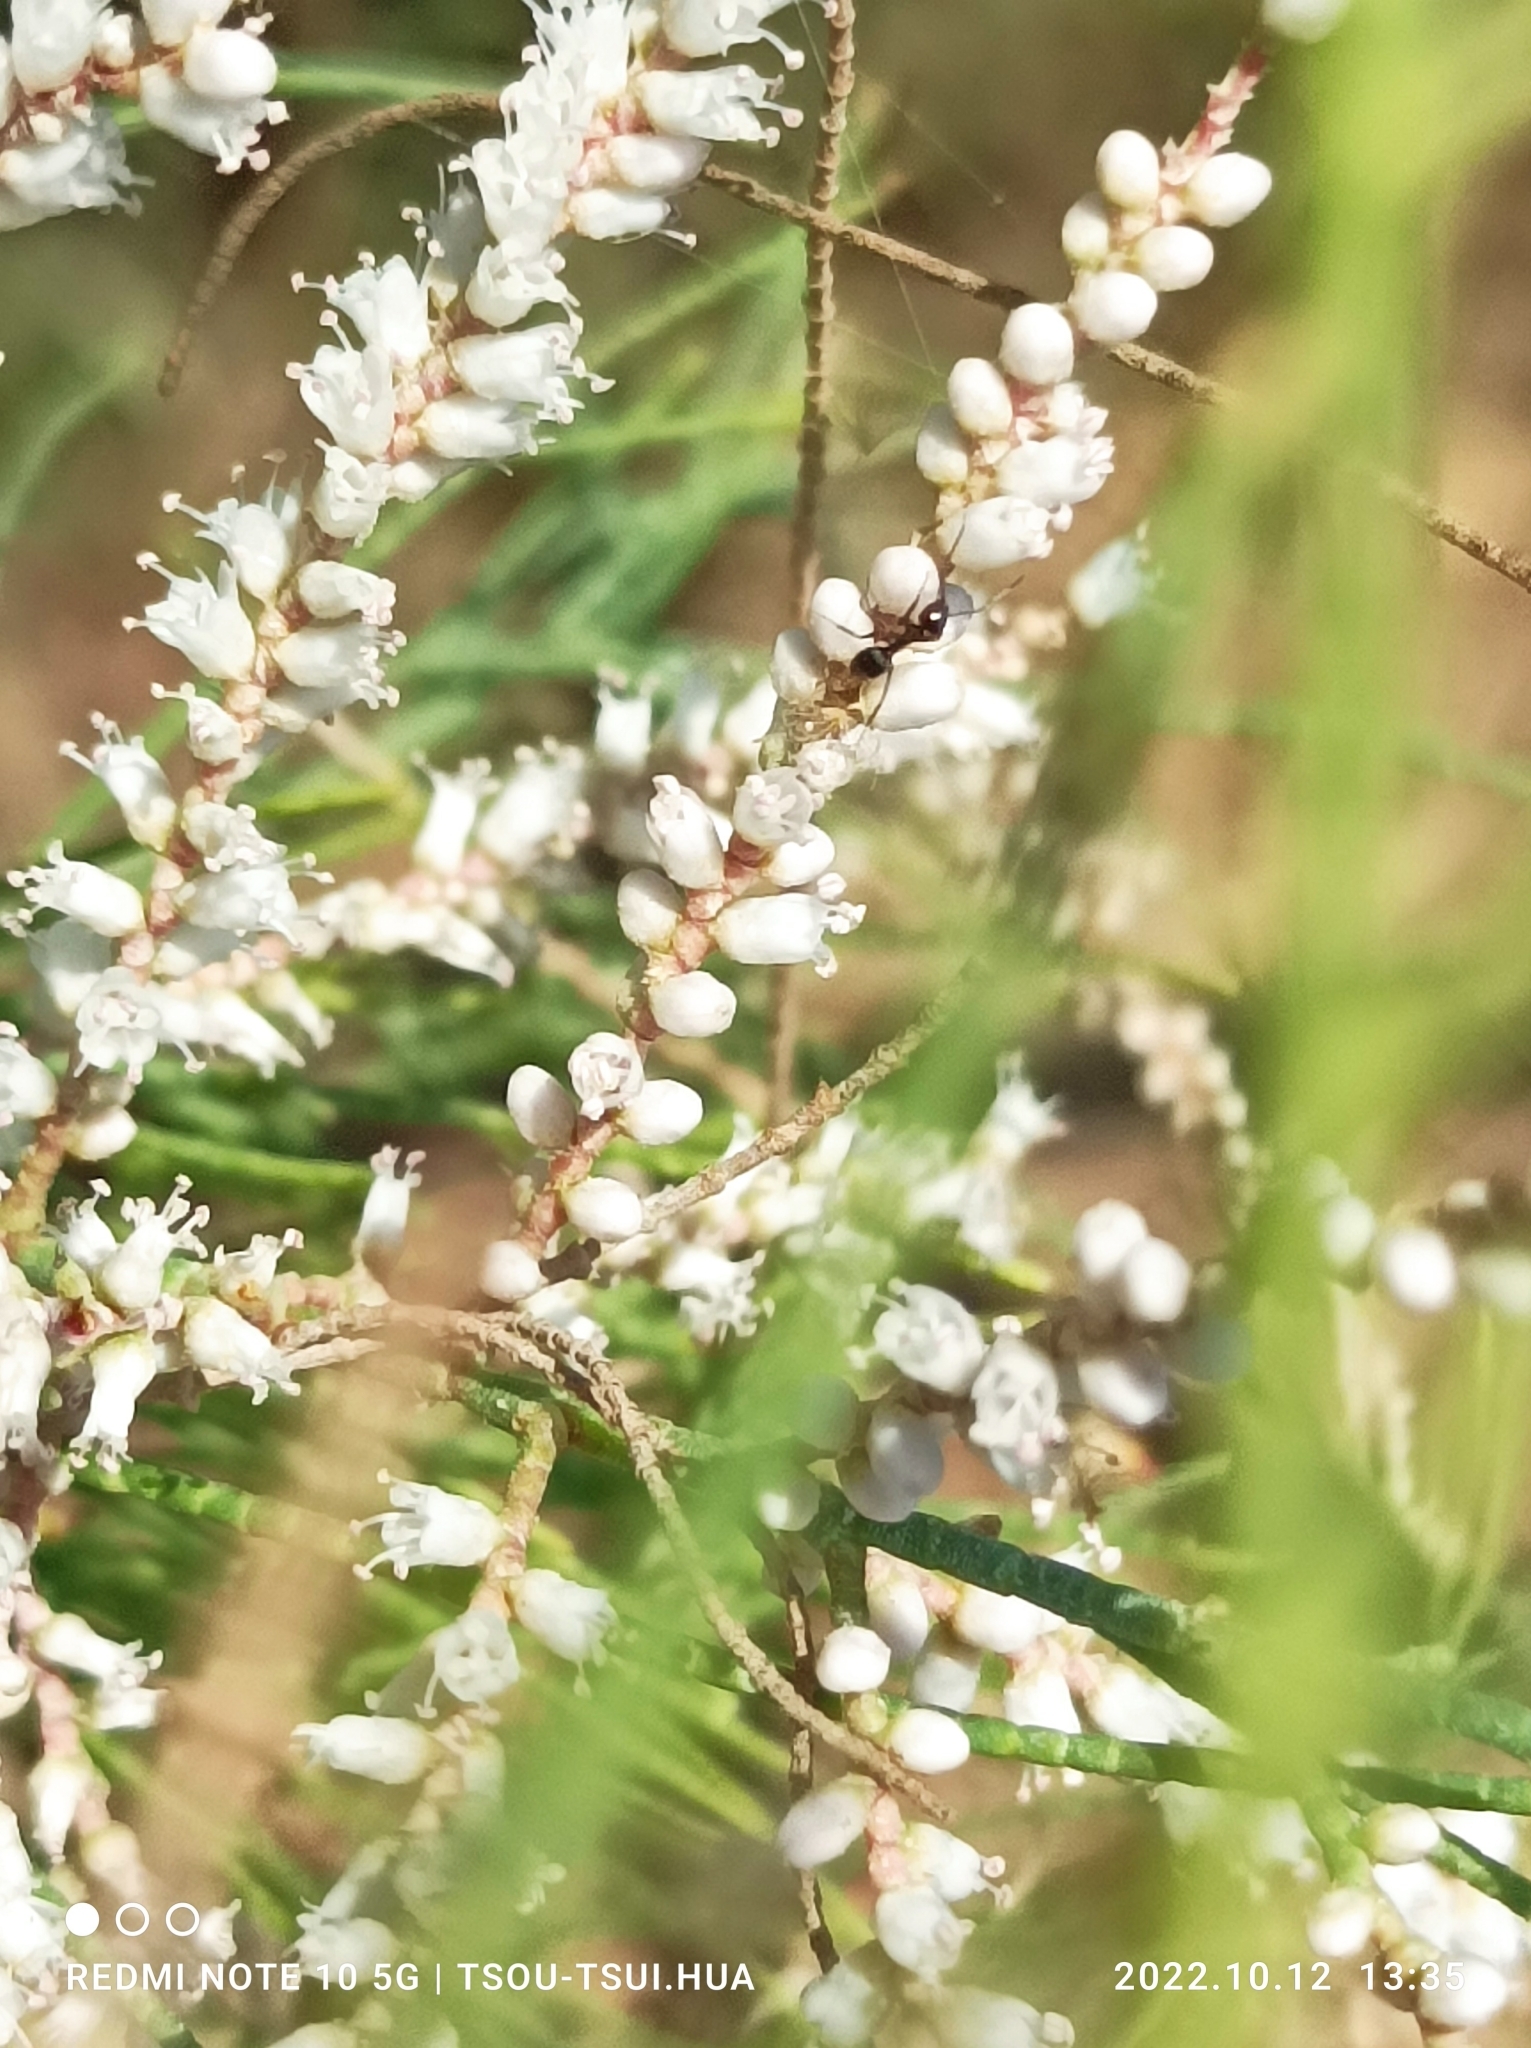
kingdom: Plantae
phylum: Tracheophyta
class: Magnoliopsida
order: Caryophyllales
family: Tamaricaceae
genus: Tamarix
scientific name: Tamarix aphylla
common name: Athel tamarisk
